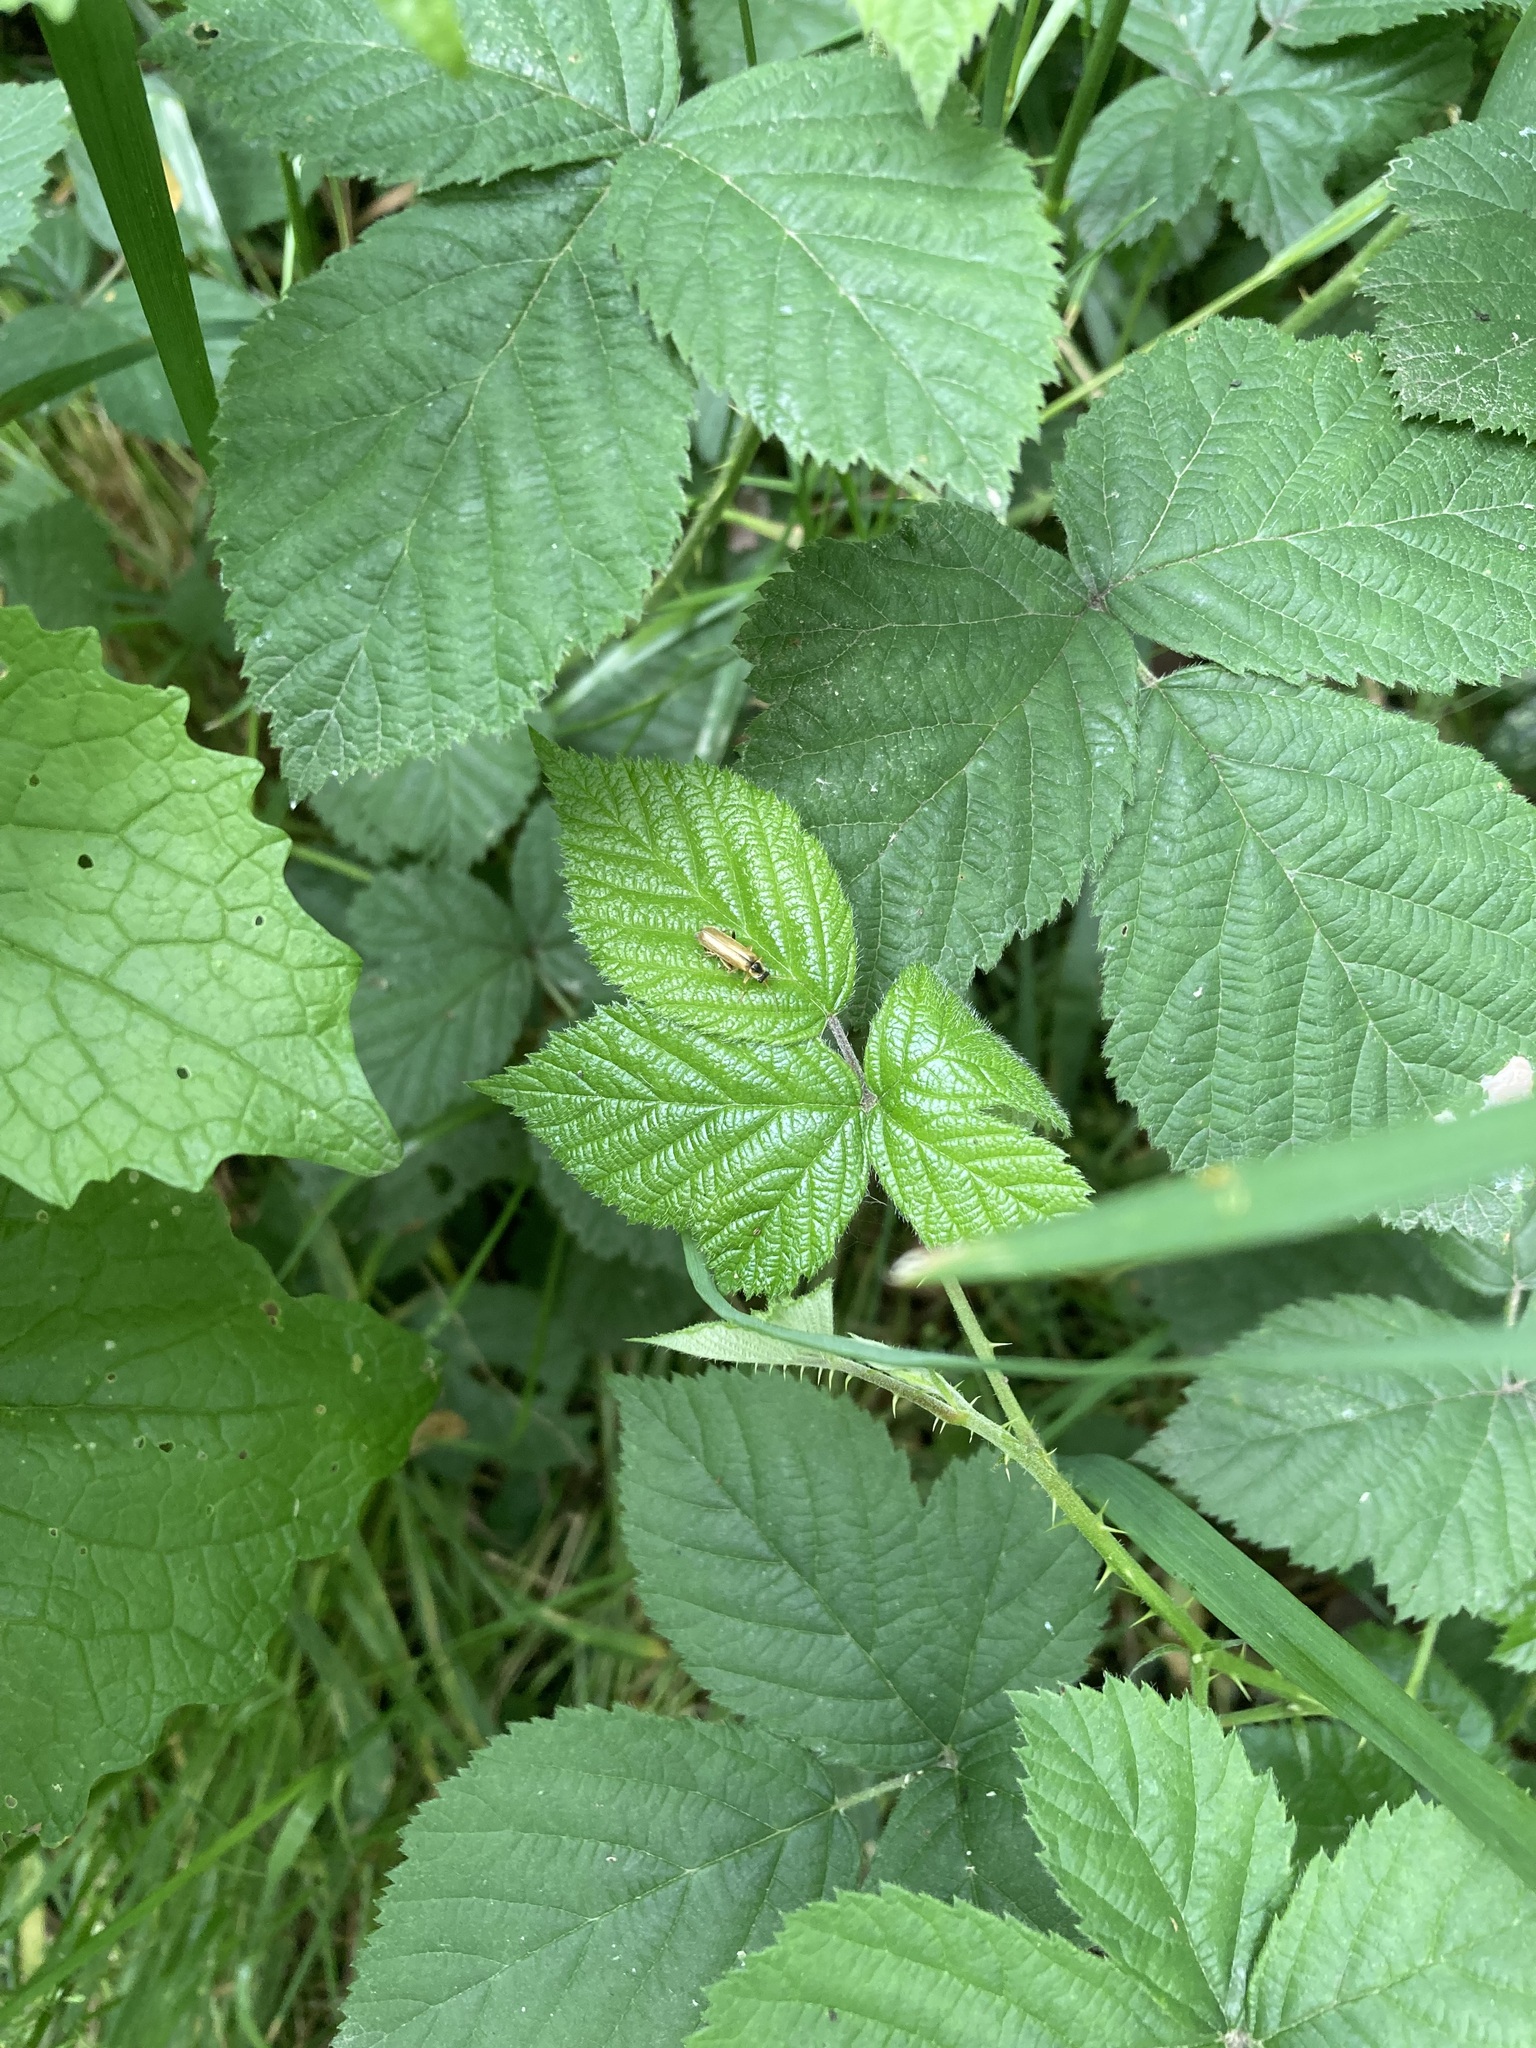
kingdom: Animalia
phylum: Arthropoda
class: Insecta
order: Coleoptera
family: Cantharidae
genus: Cantharis
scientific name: Cantharis decipiens
